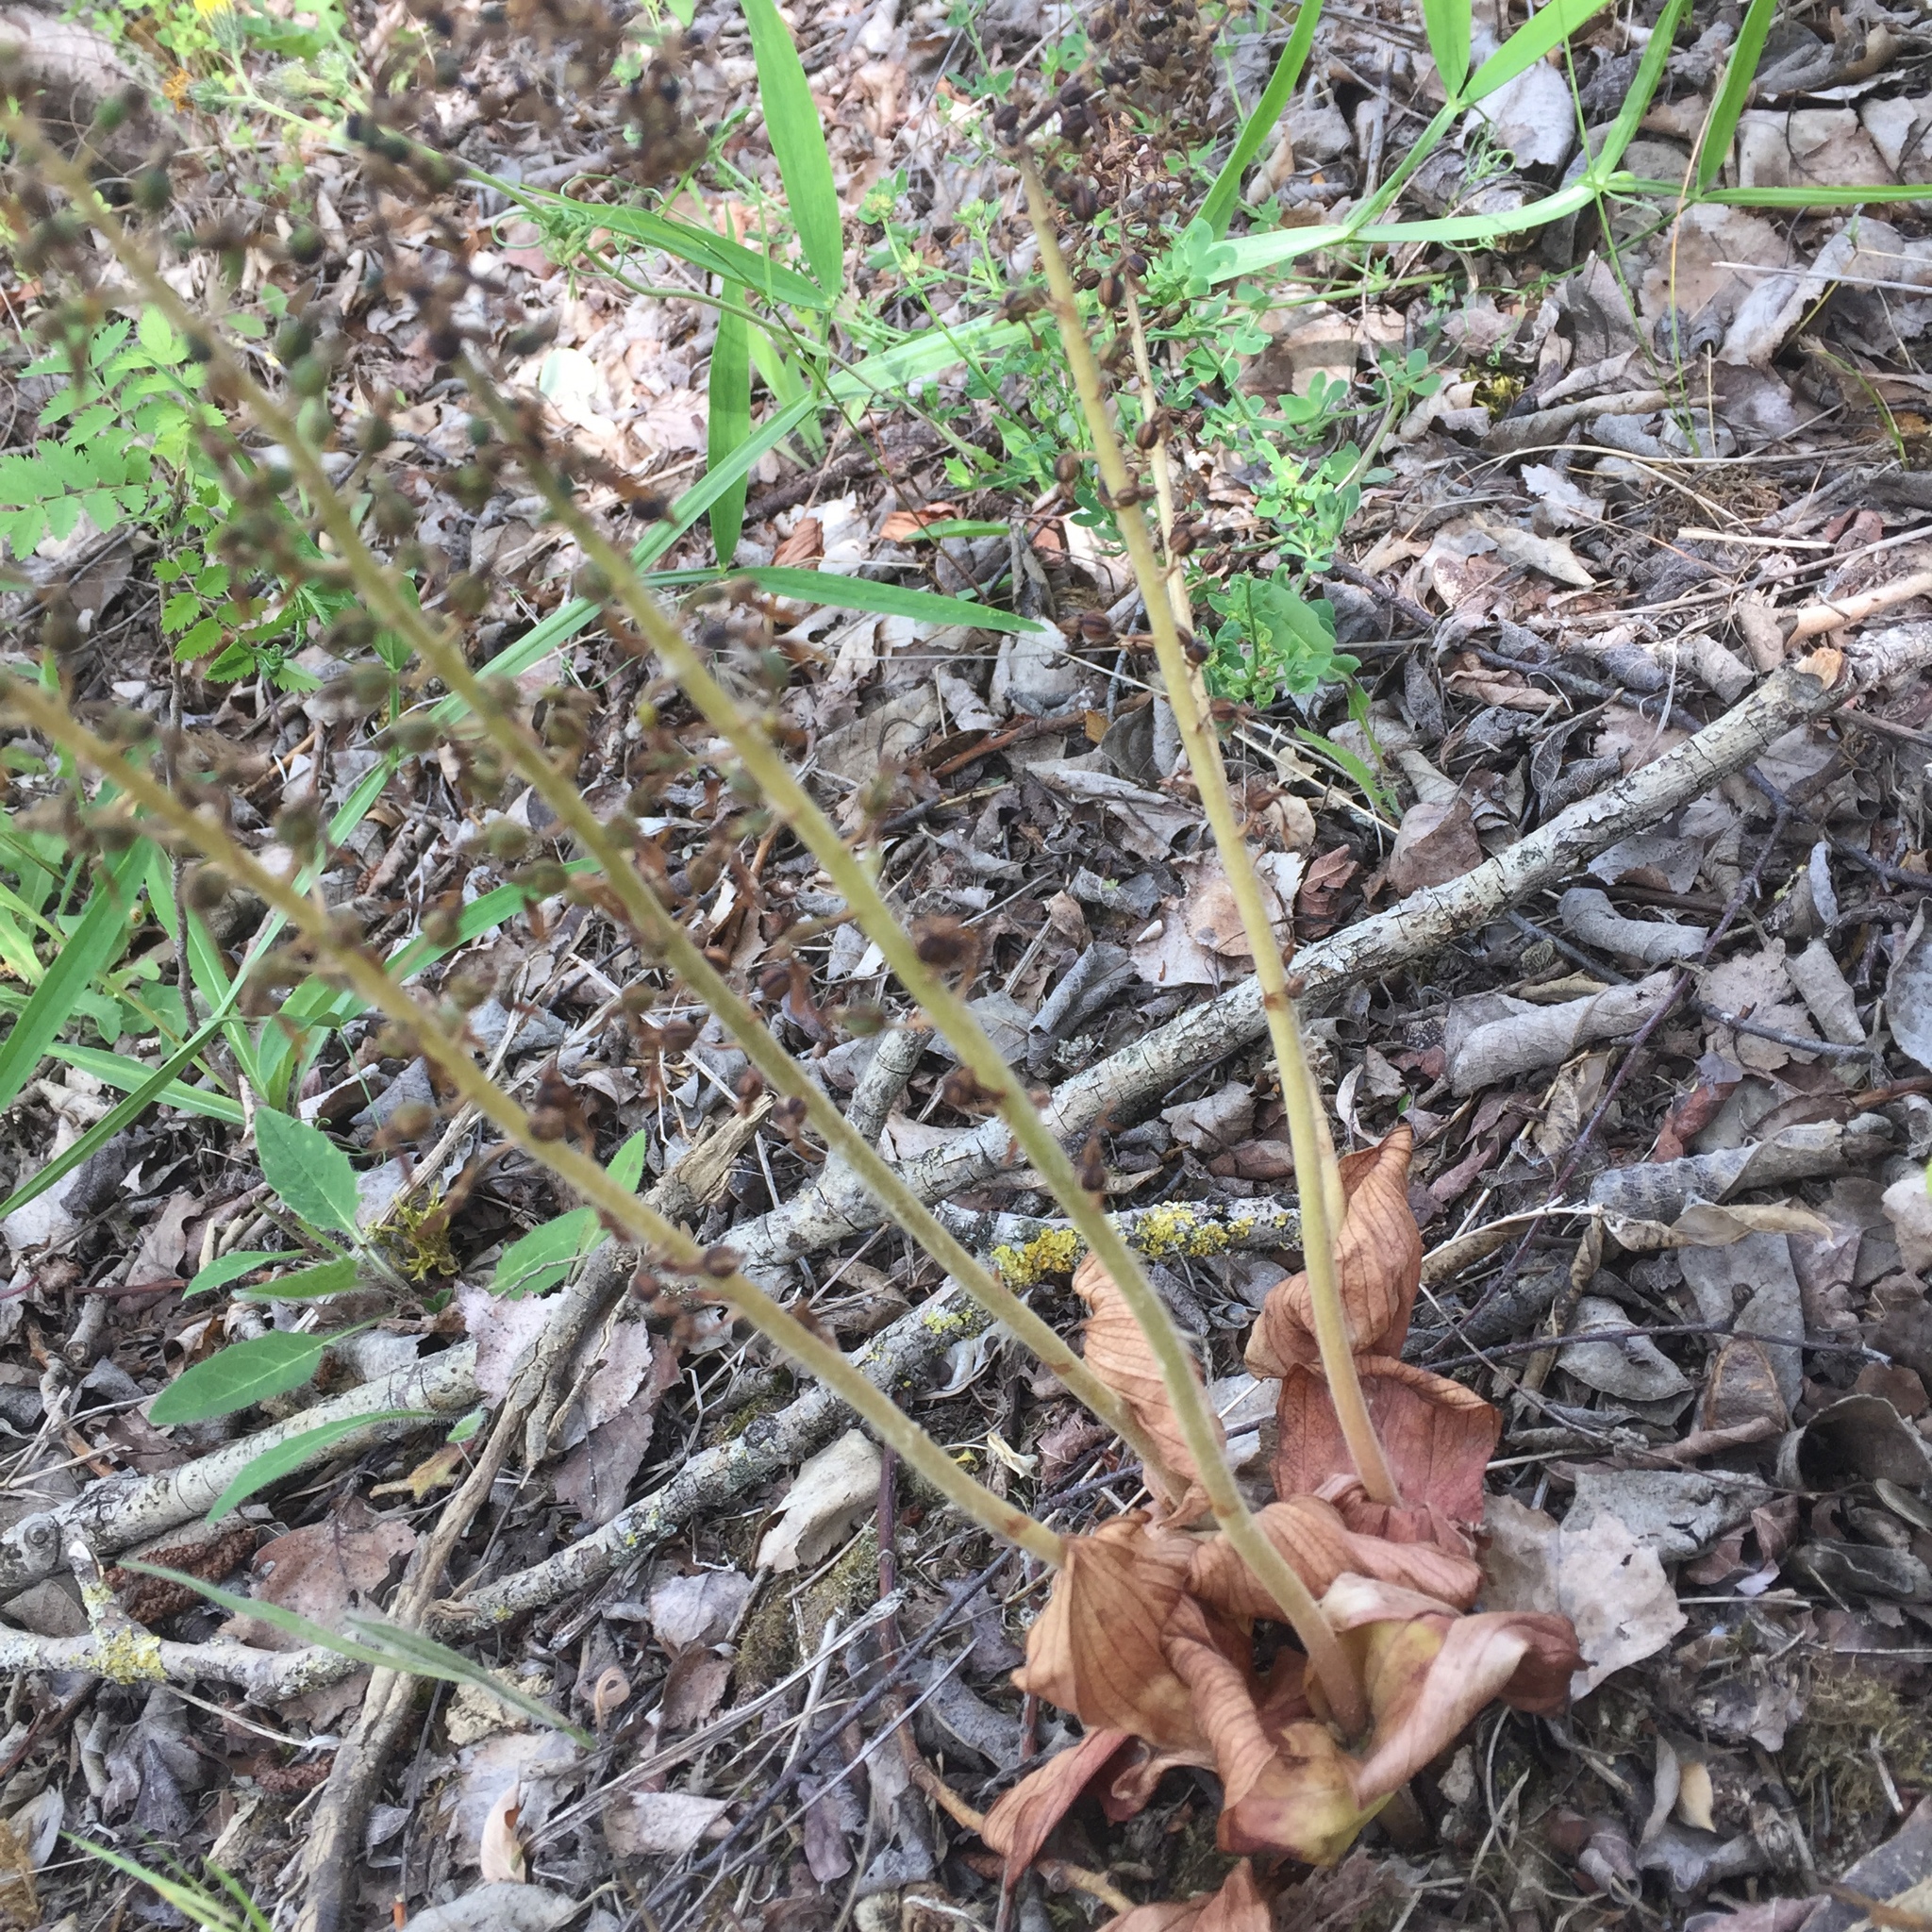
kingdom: Plantae
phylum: Tracheophyta
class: Liliopsida
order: Asparagales
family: Orchidaceae
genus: Neottia
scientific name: Neottia ovata
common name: Common twayblade
